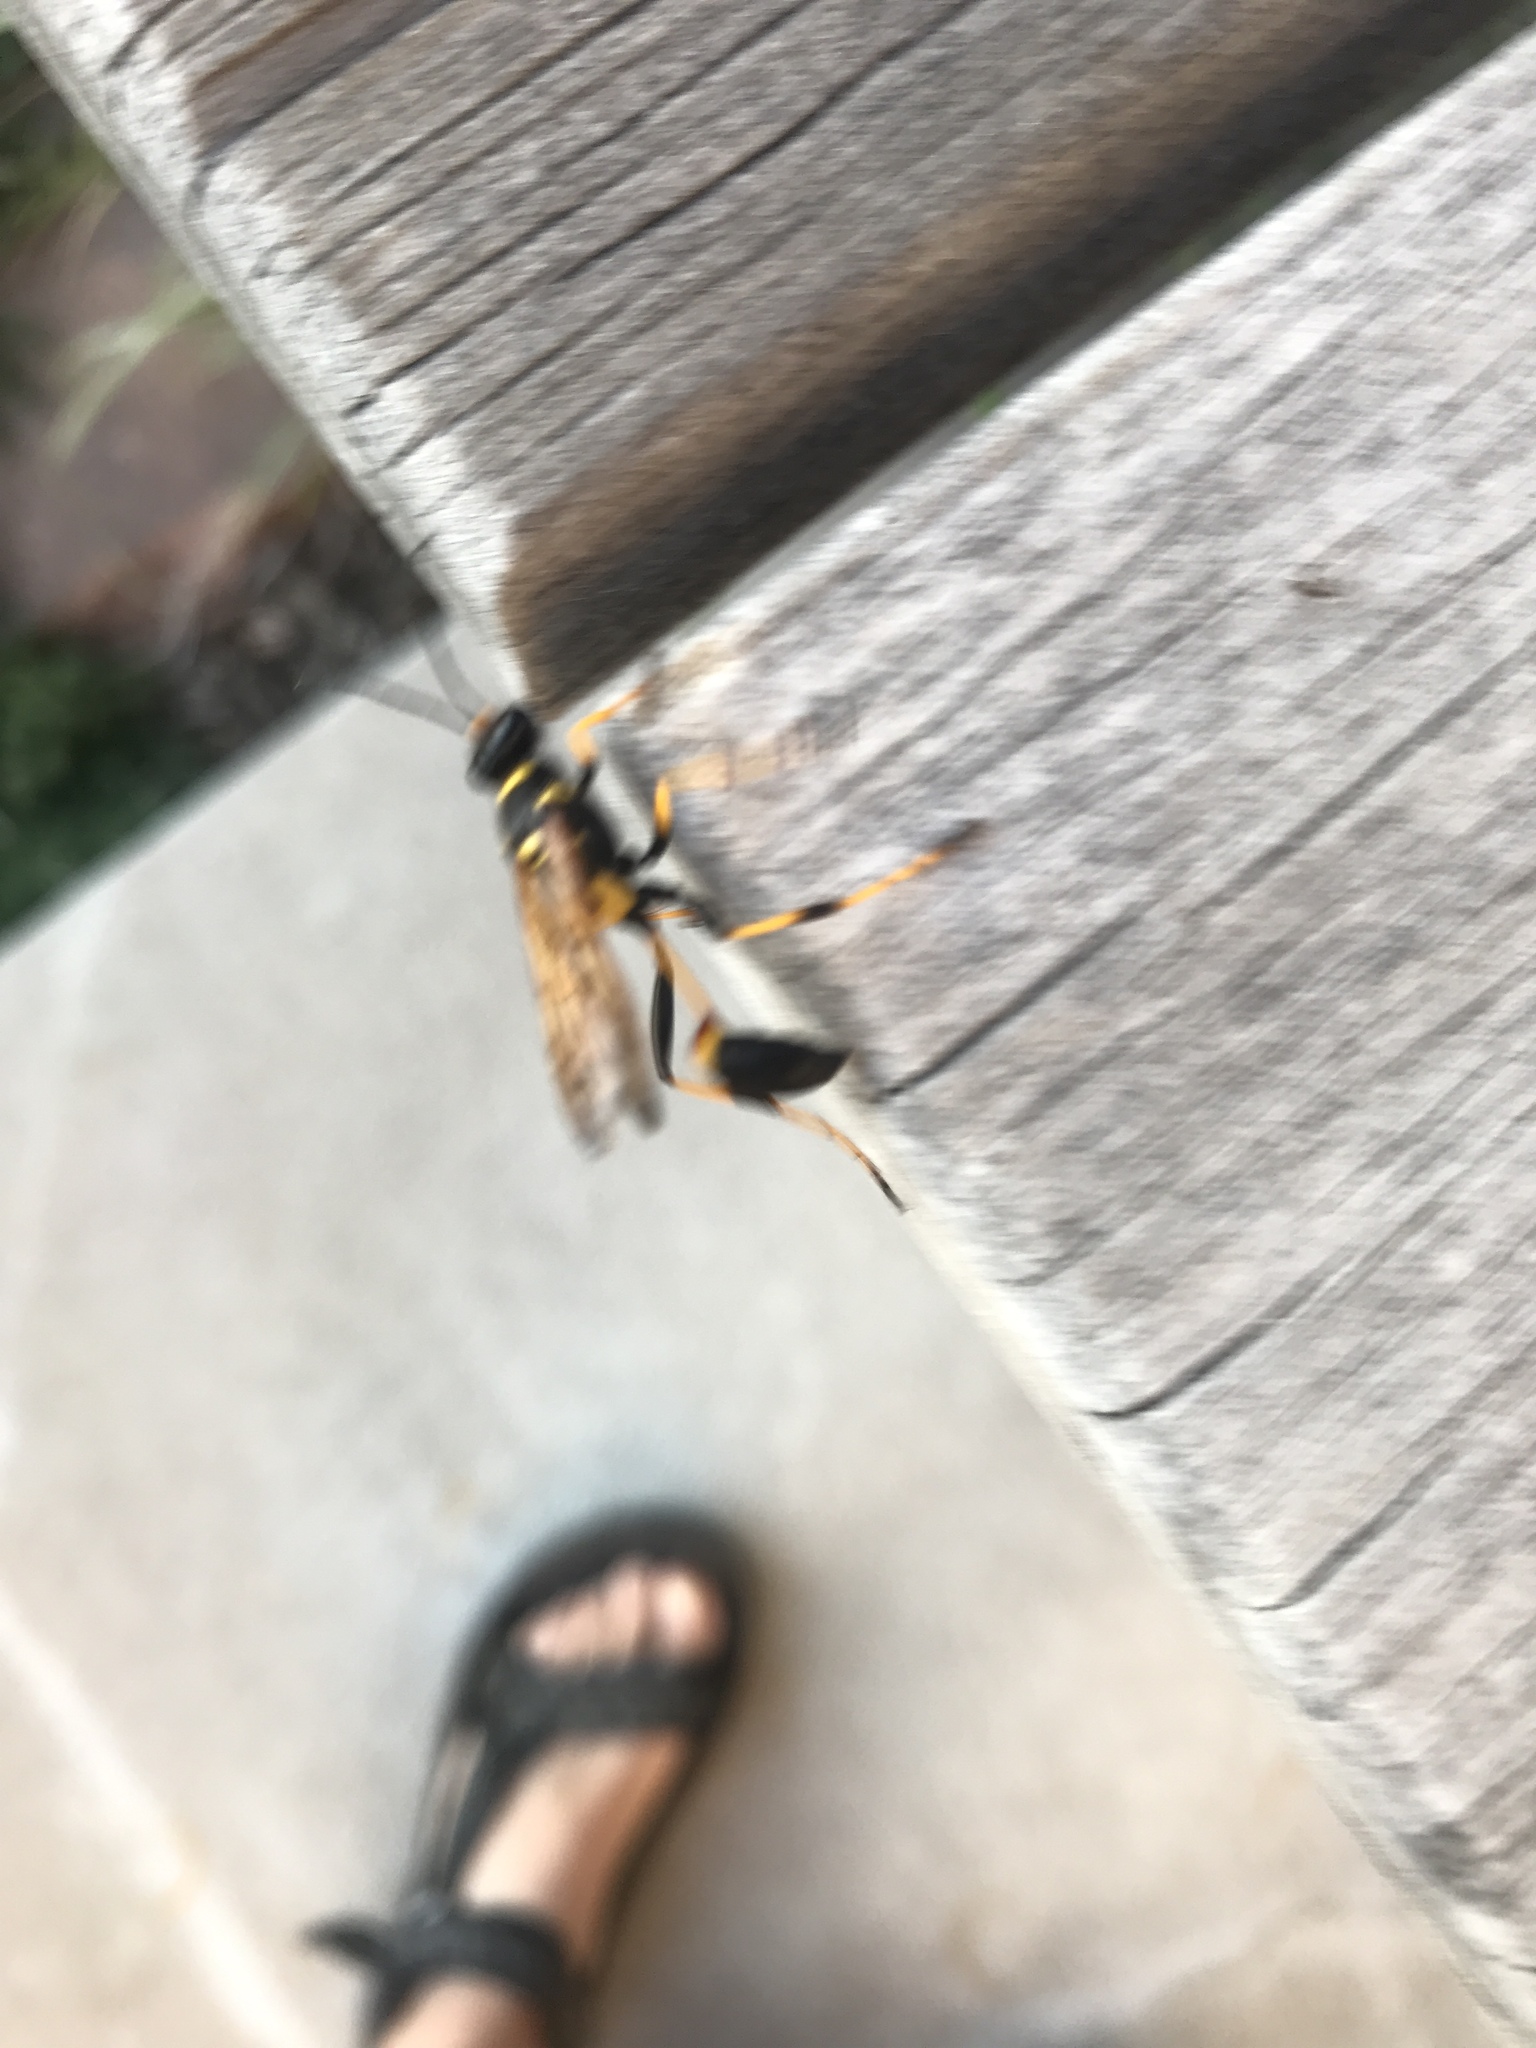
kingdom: Animalia
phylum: Arthropoda
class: Insecta
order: Hymenoptera
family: Sphecidae
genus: Sceliphron
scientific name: Sceliphron caementarium
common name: Mud dauber
